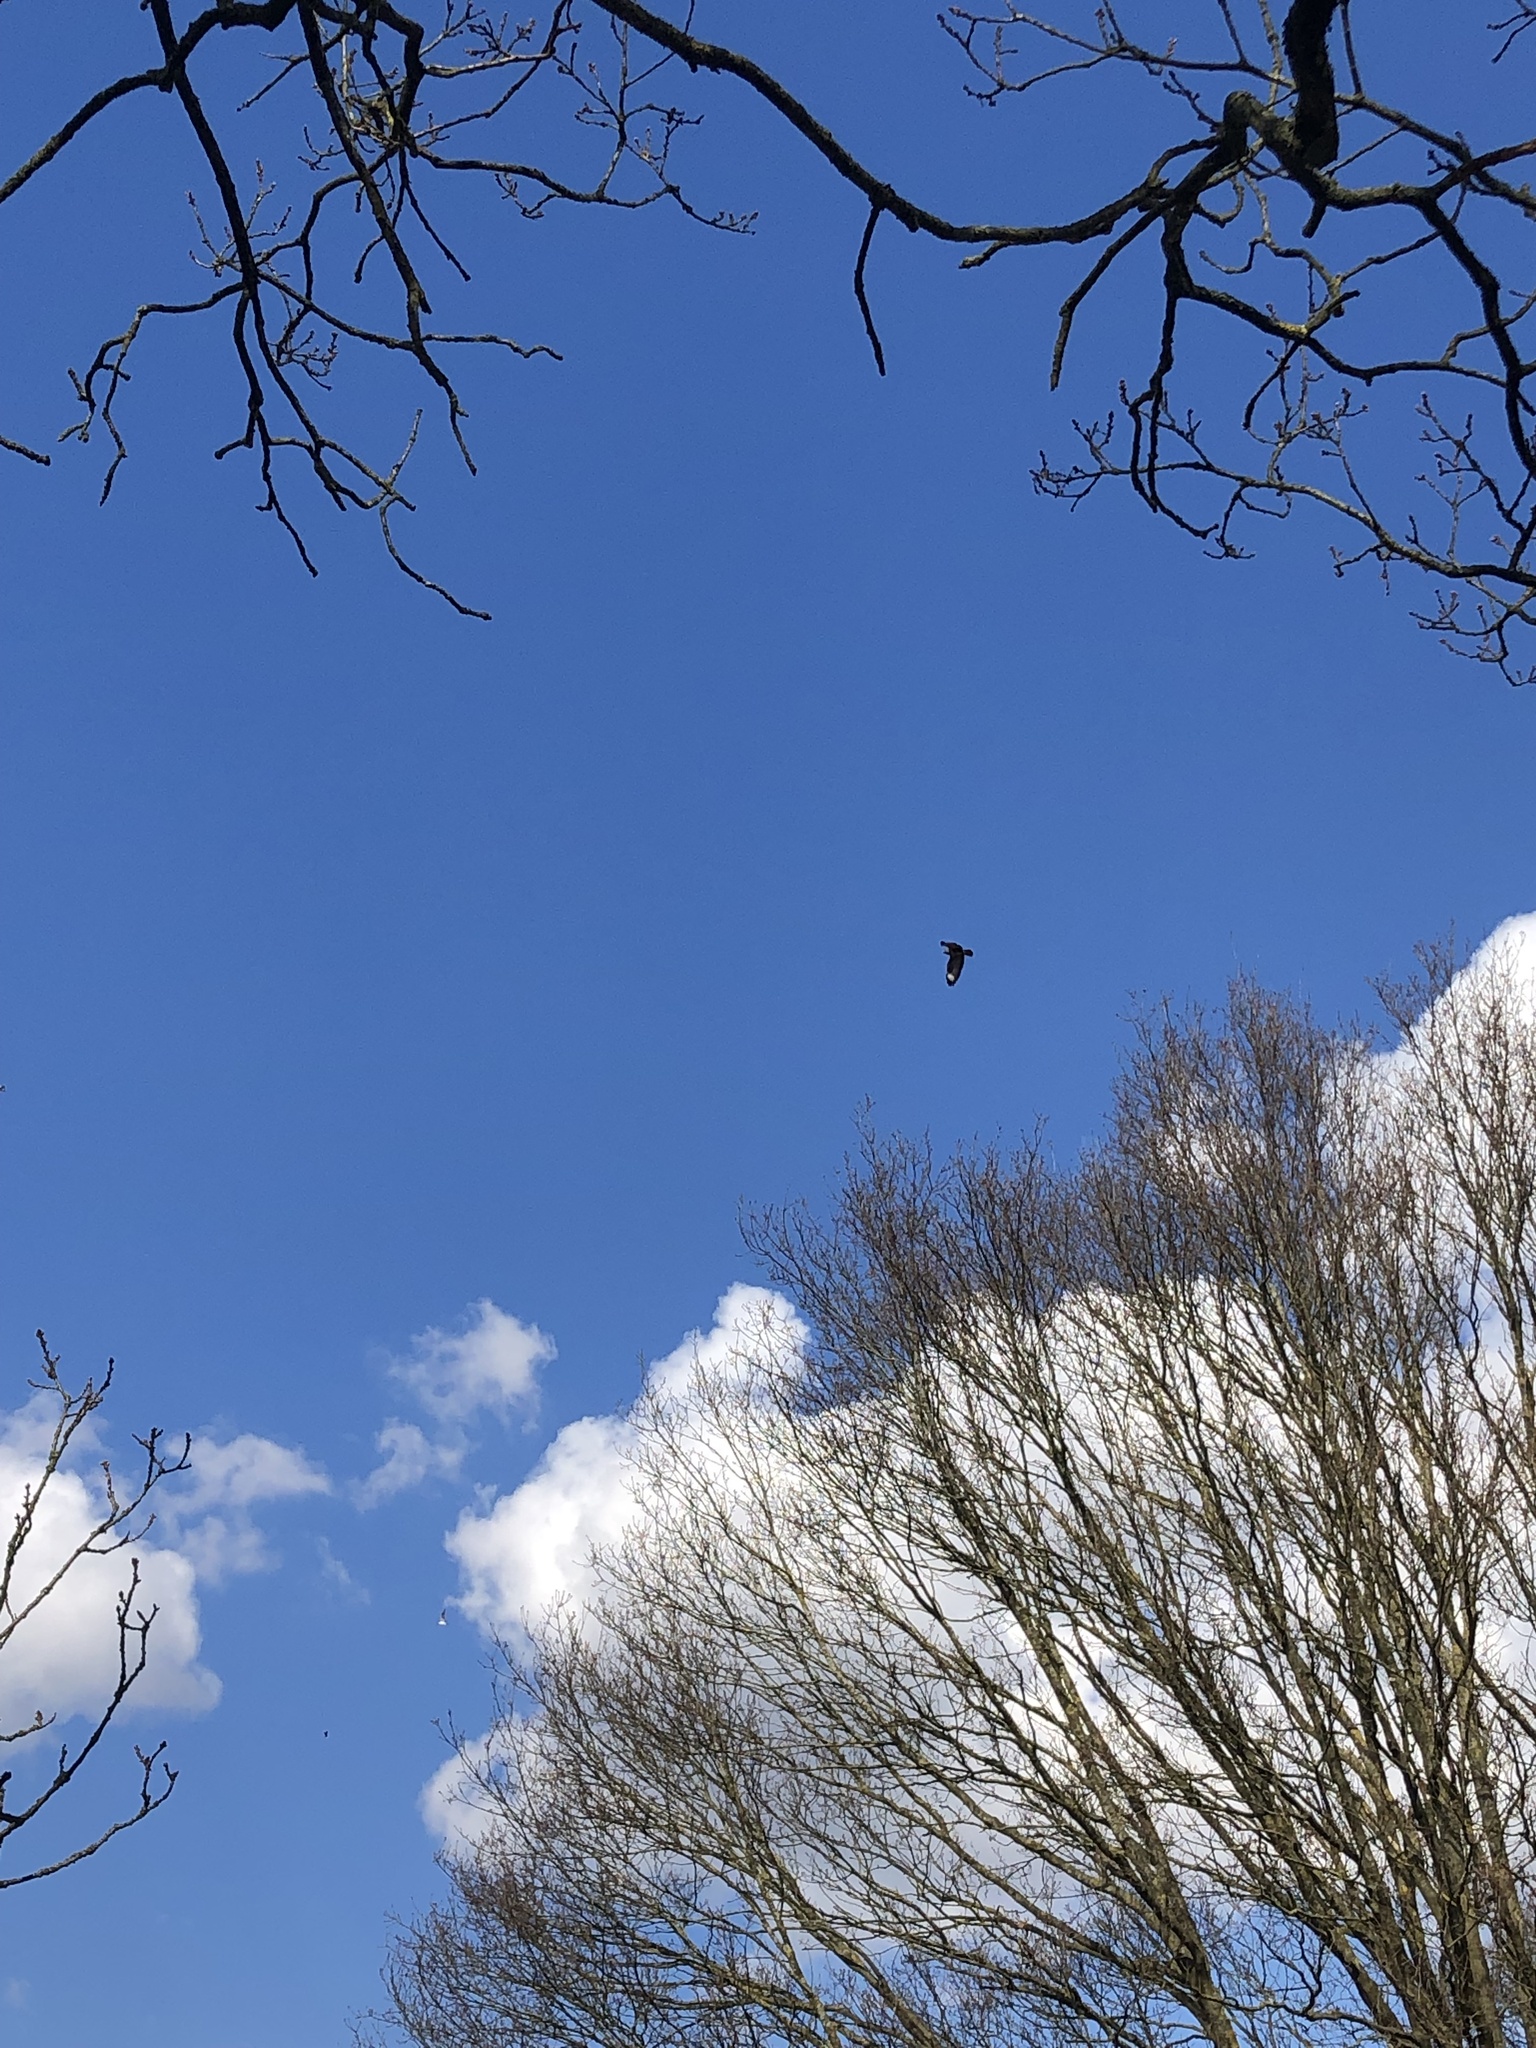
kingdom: Animalia
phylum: Chordata
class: Aves
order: Accipitriformes
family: Accipitridae
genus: Buteo
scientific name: Buteo buteo
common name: Common buzzard
